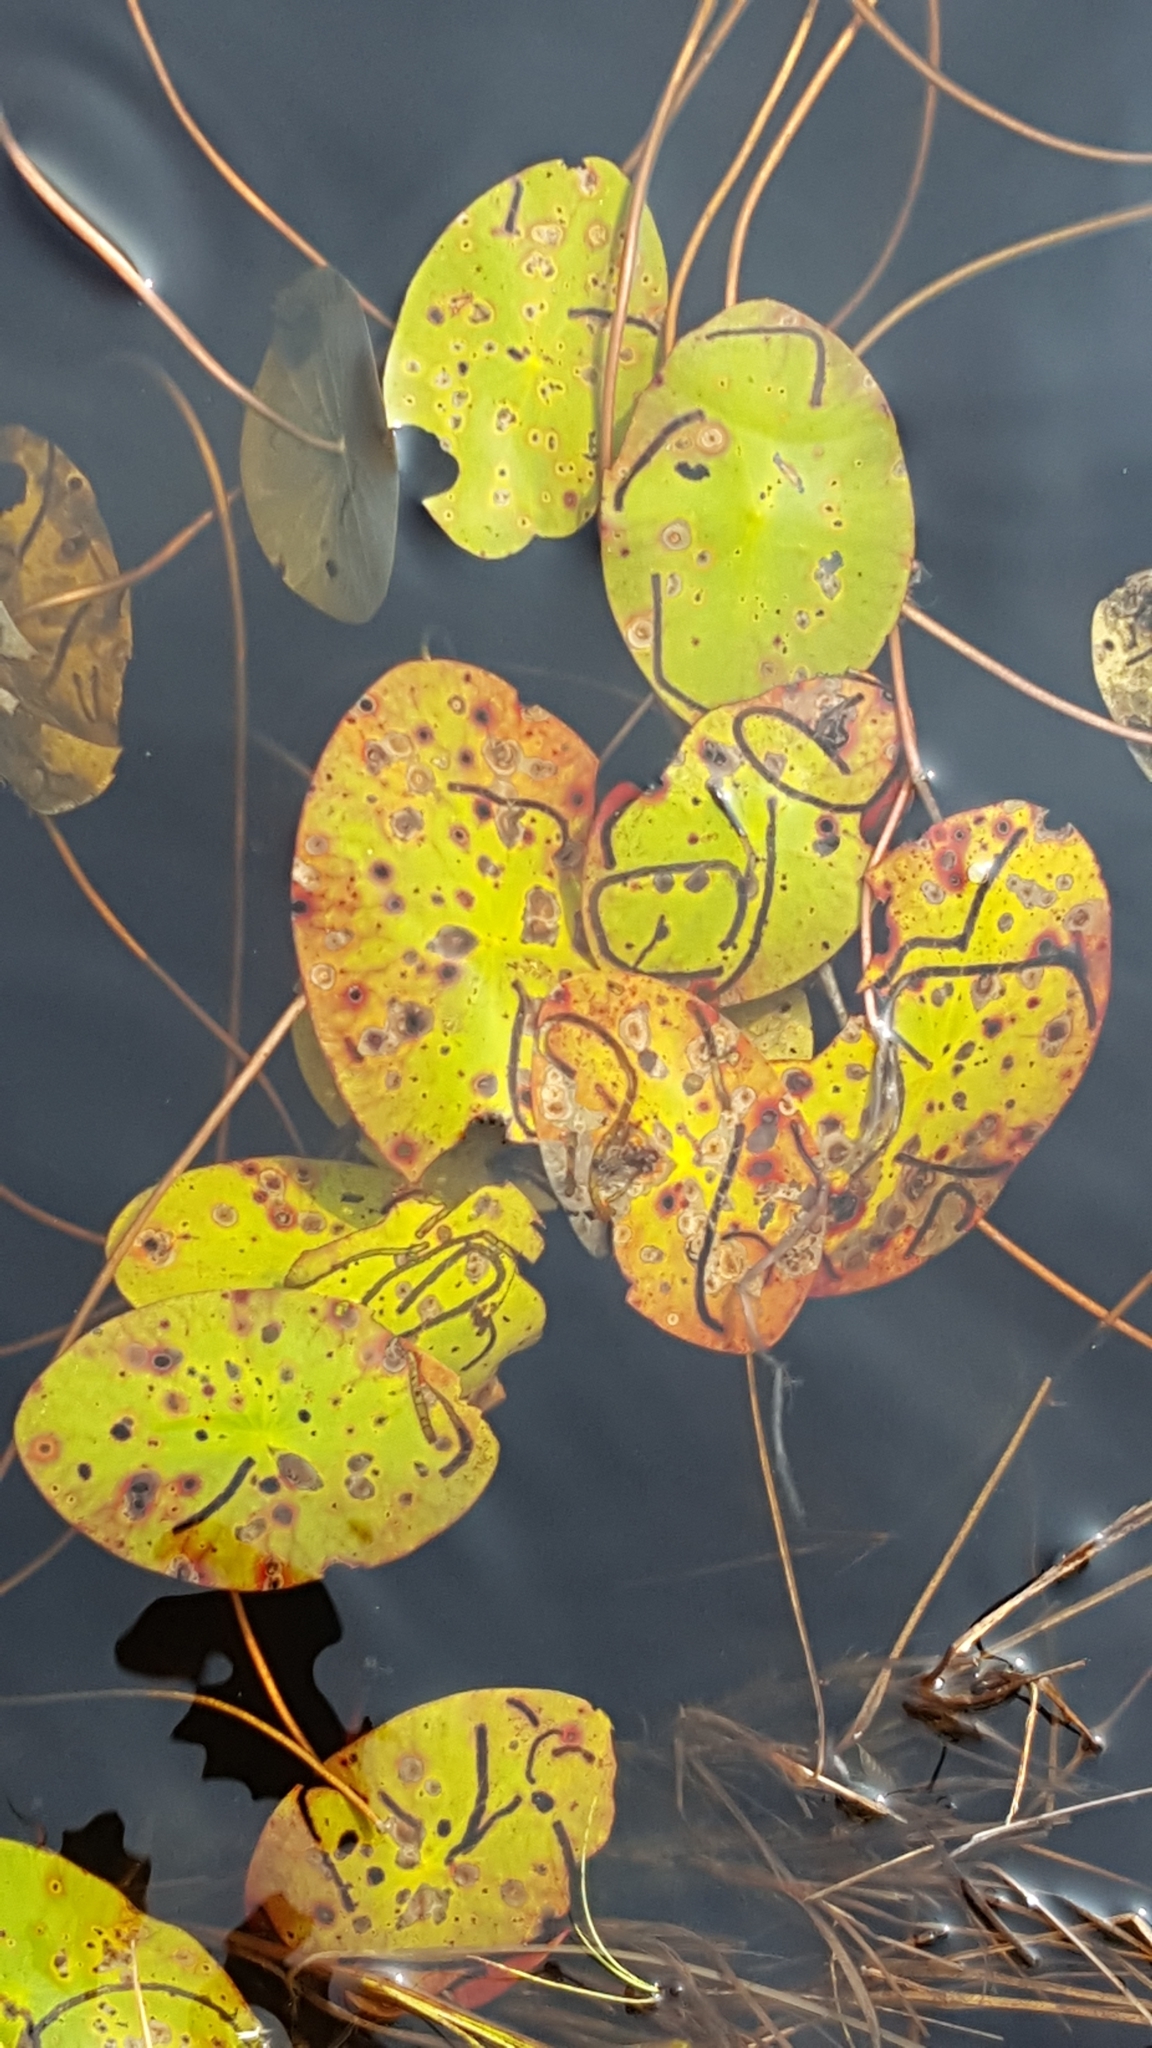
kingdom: Plantae
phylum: Tracheophyta
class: Magnoliopsida
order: Nymphaeales
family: Cabombaceae
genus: Brasenia
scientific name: Brasenia schreberi
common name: Water-shield
